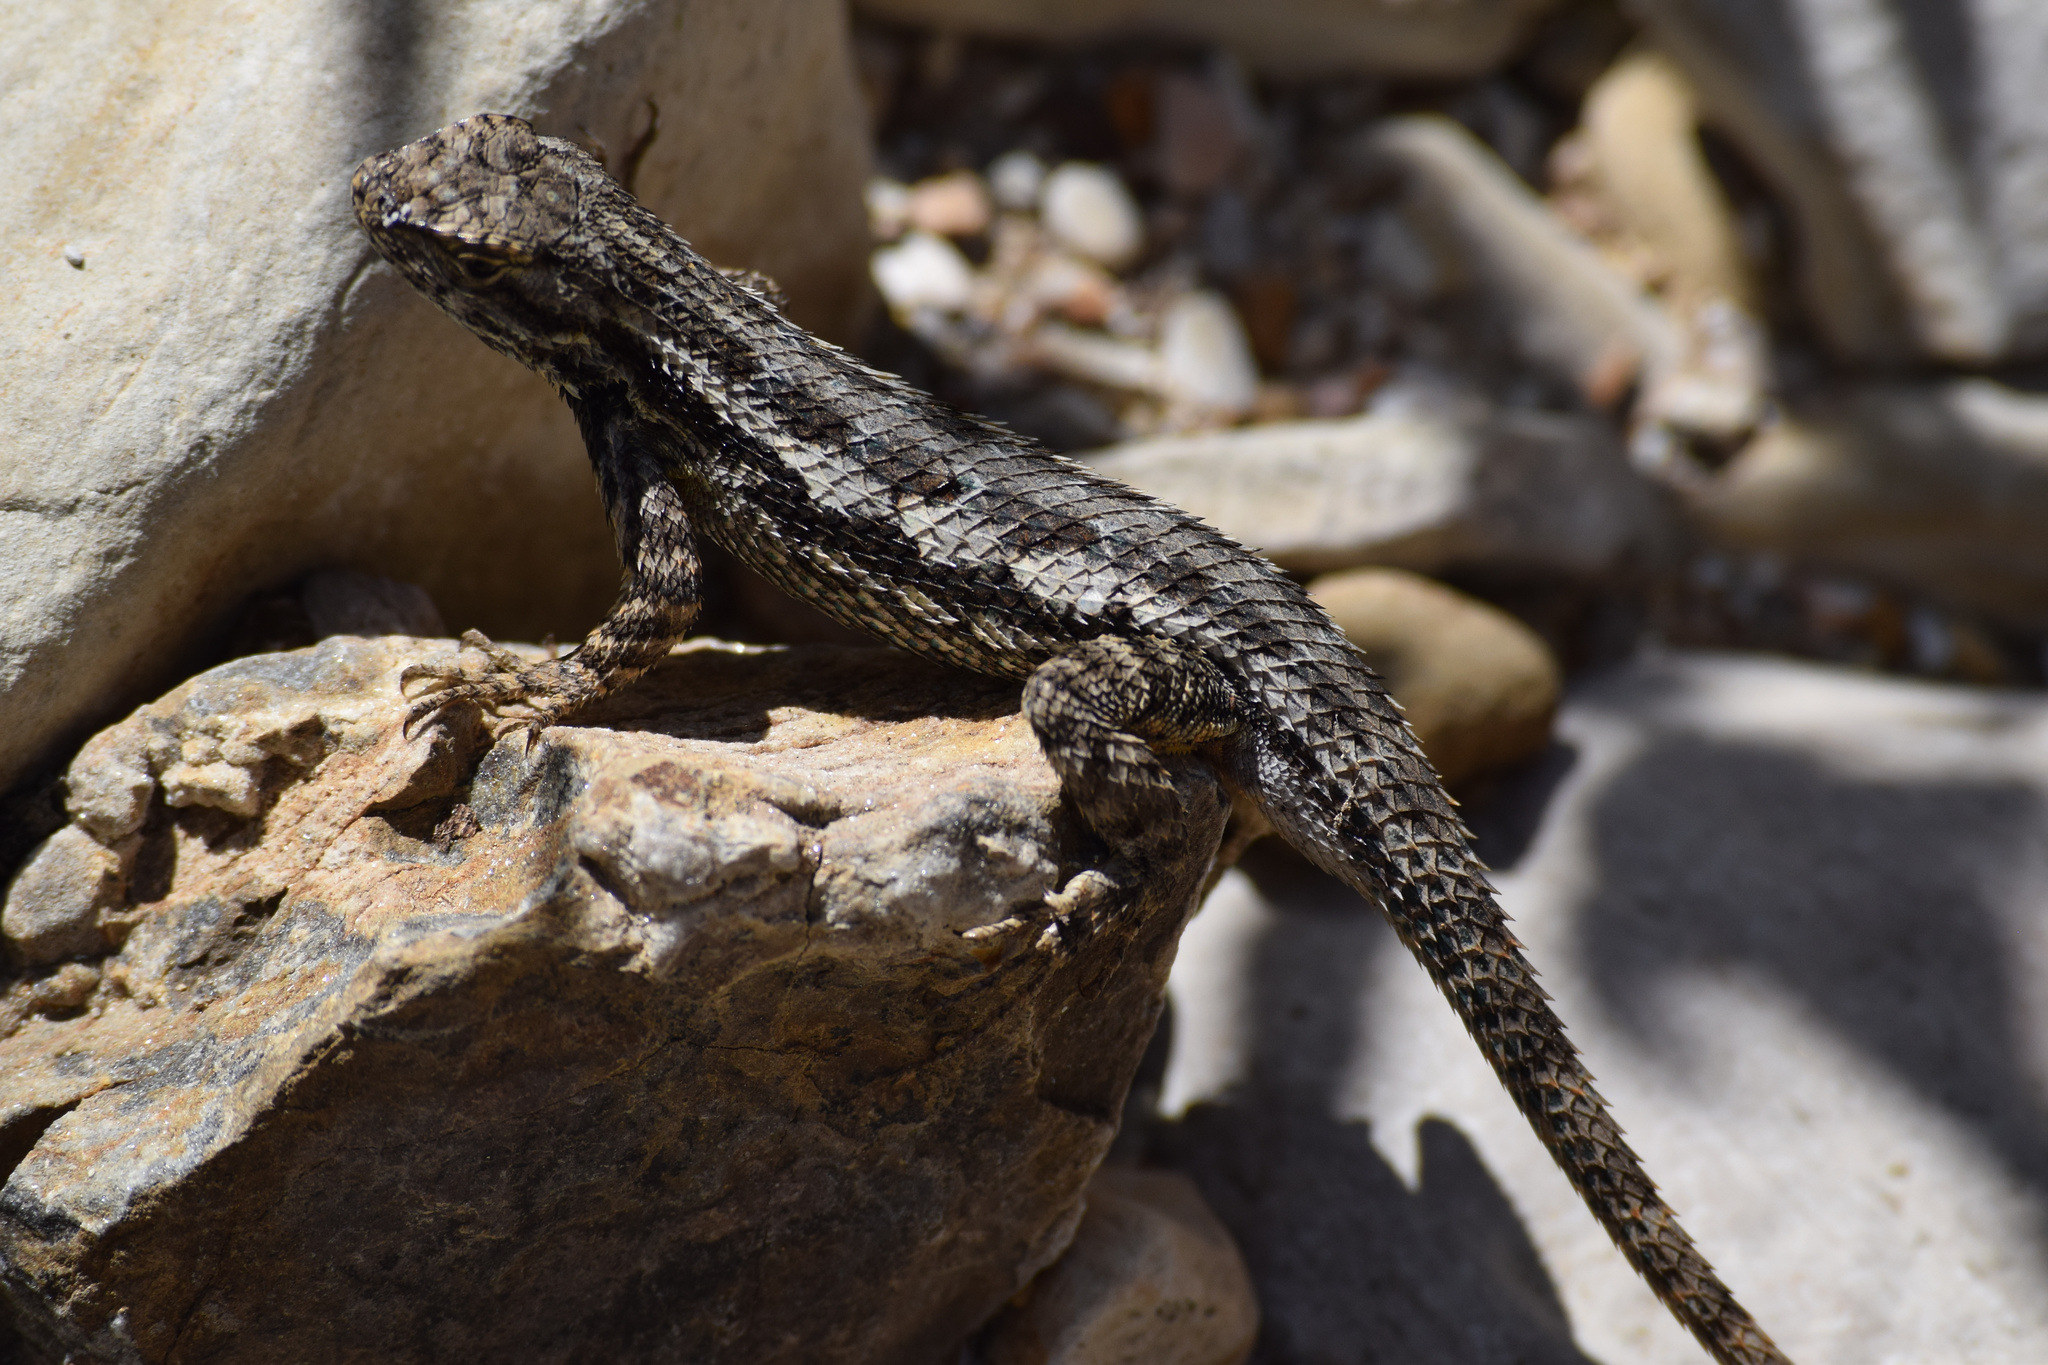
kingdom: Animalia
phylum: Chordata
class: Squamata
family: Phrynosomatidae
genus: Sceloporus
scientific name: Sceloporus occidentalis
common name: Western fence lizard
